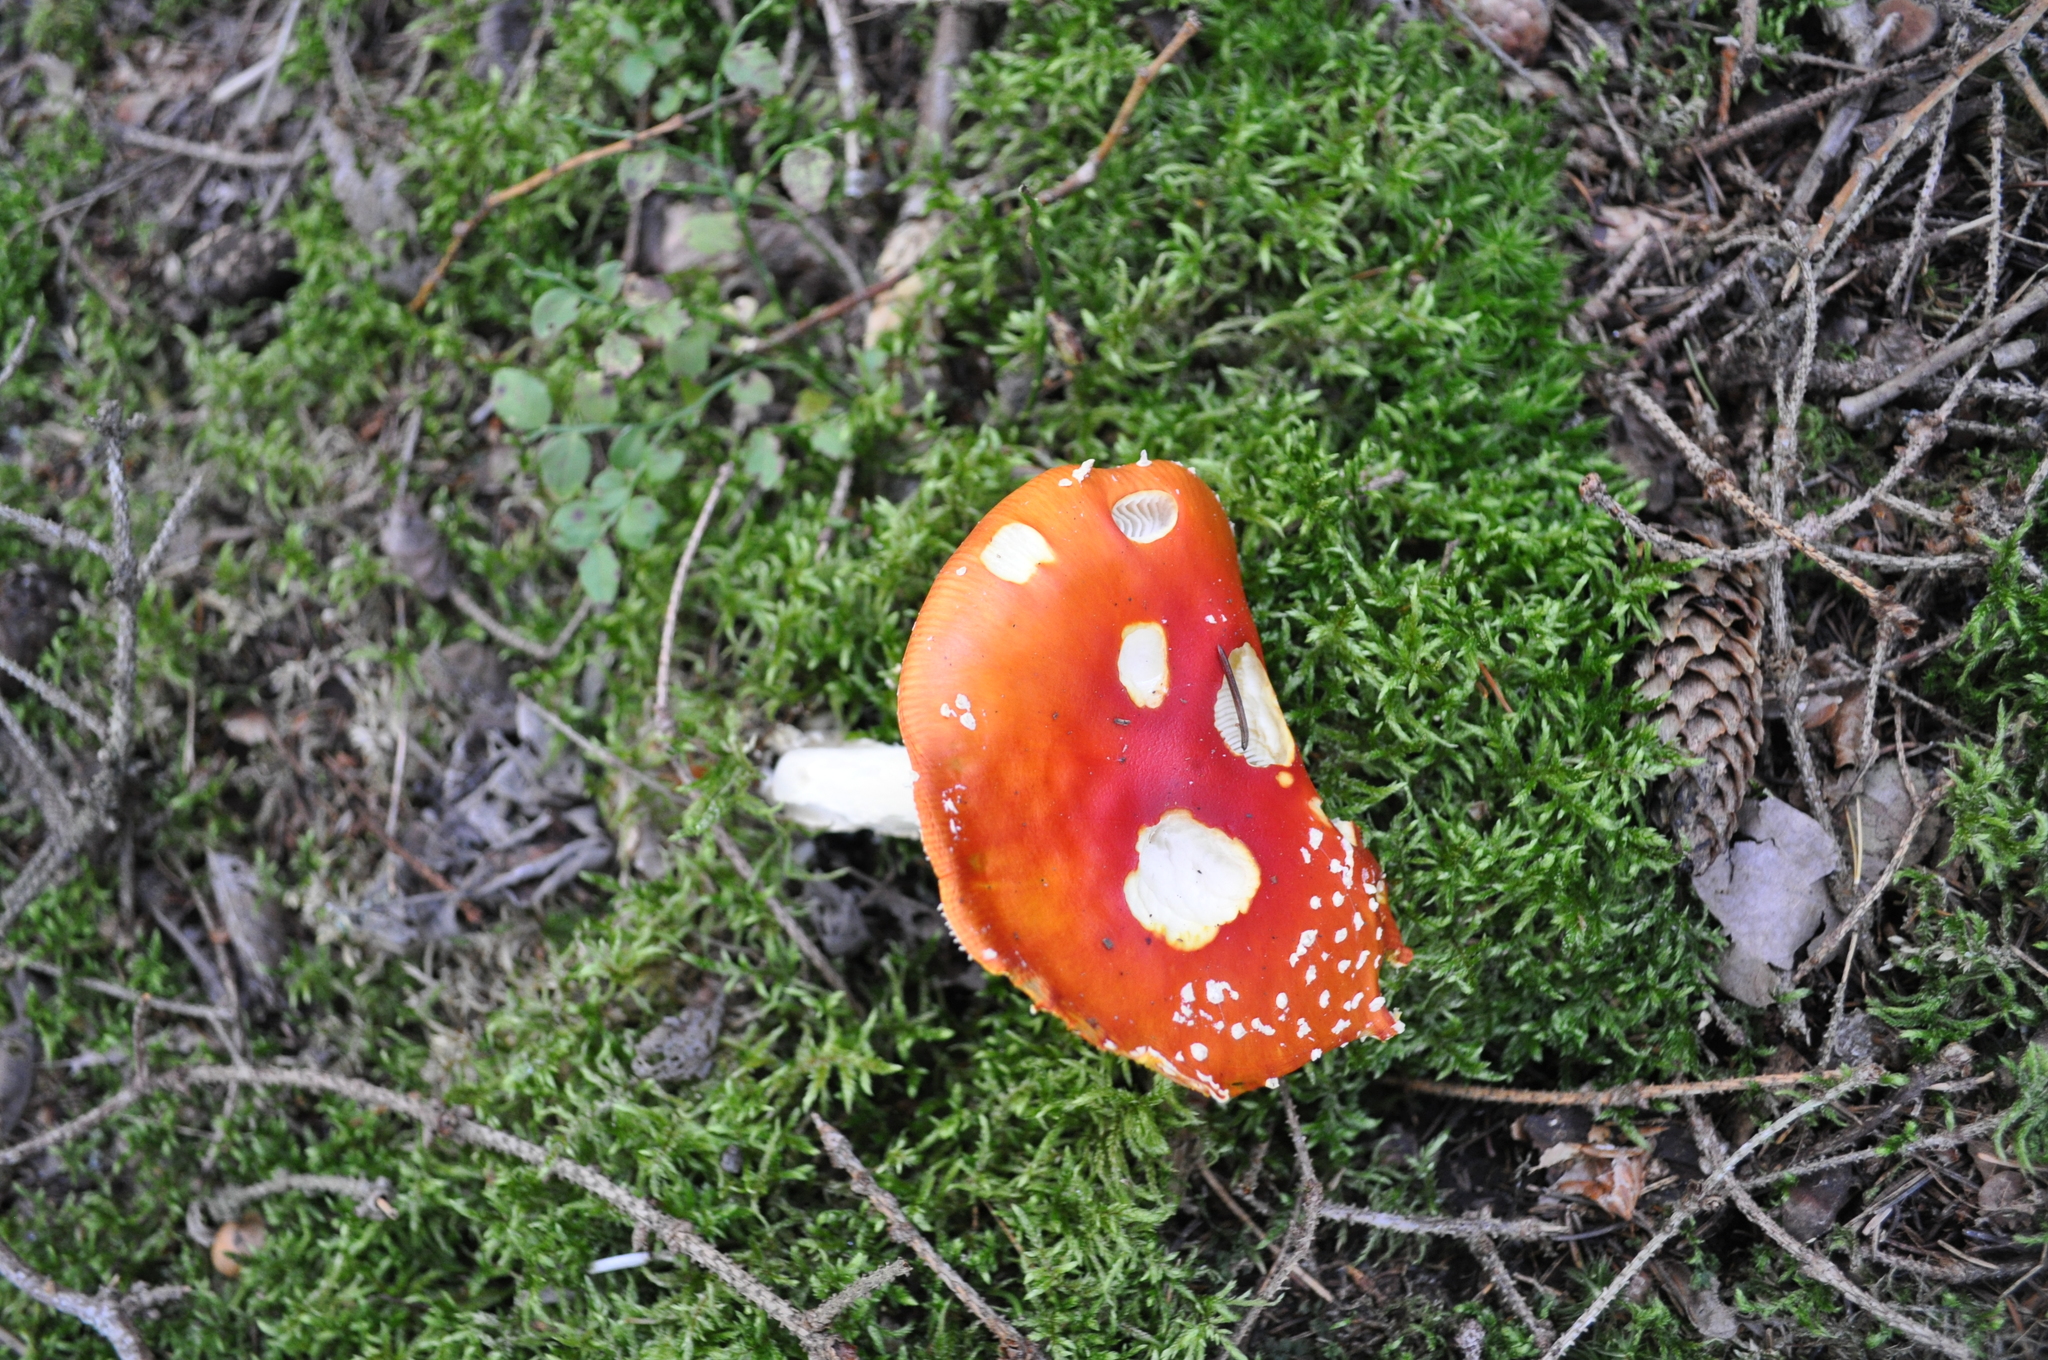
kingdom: Fungi
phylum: Basidiomycota
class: Agaricomycetes
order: Agaricales
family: Amanitaceae
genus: Amanita
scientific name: Amanita muscaria
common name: Fly agaric
